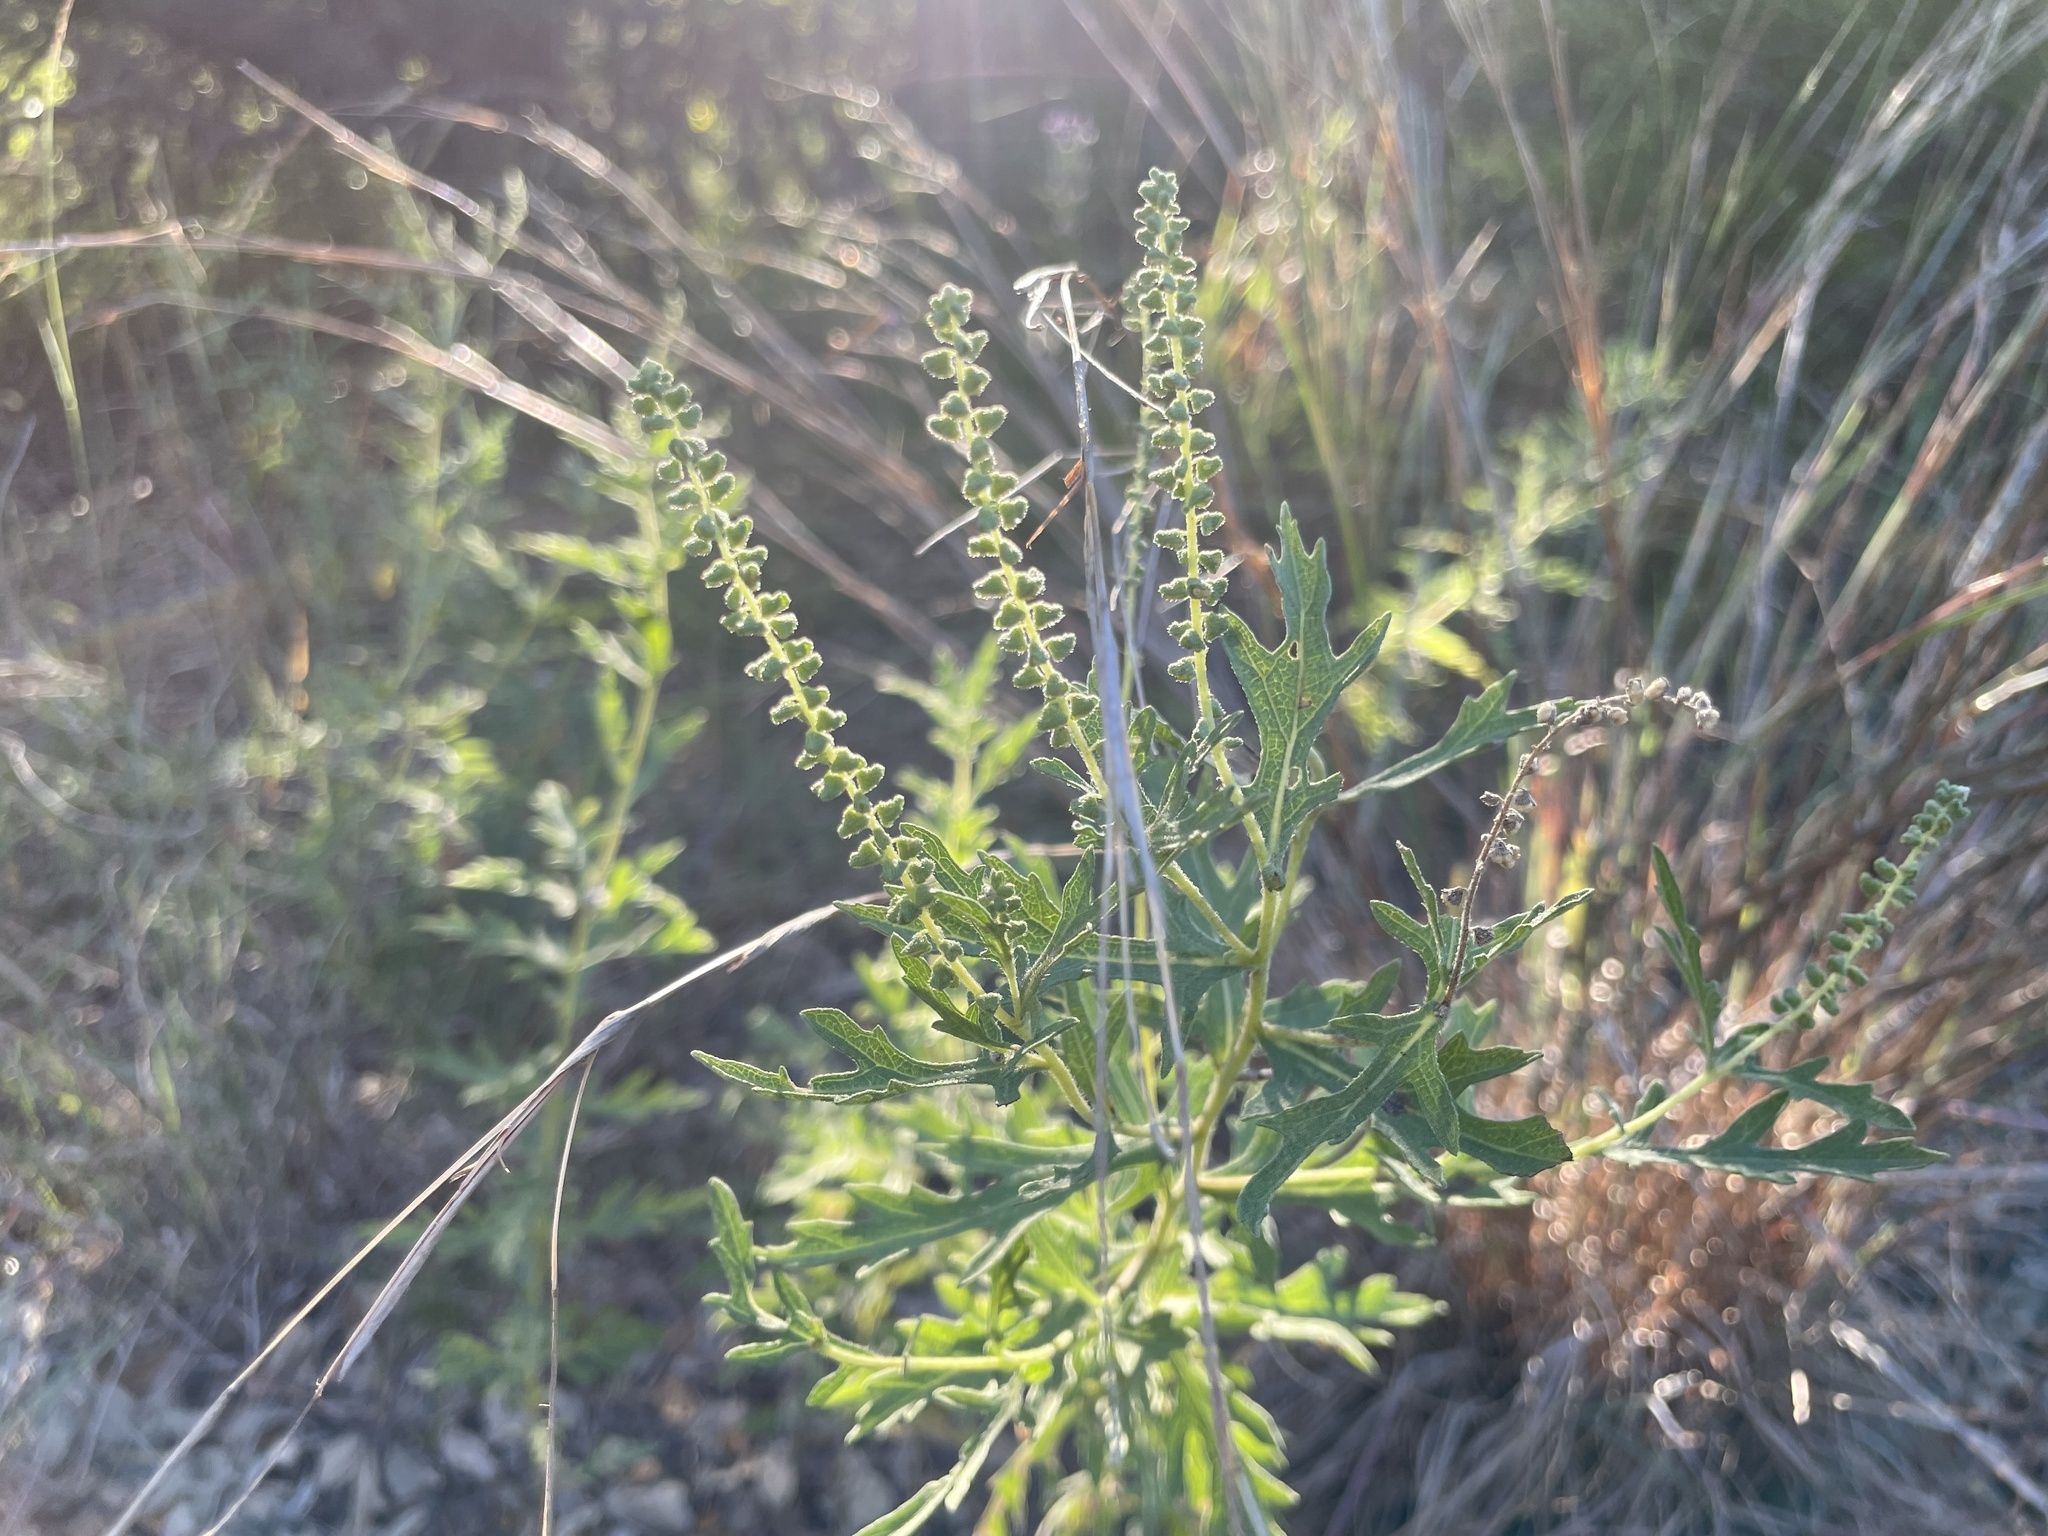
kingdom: Plantae
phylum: Tracheophyta
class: Magnoliopsida
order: Asterales
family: Asteraceae
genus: Ambrosia
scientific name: Ambrosia psilostachya
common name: Perennial ragweed
